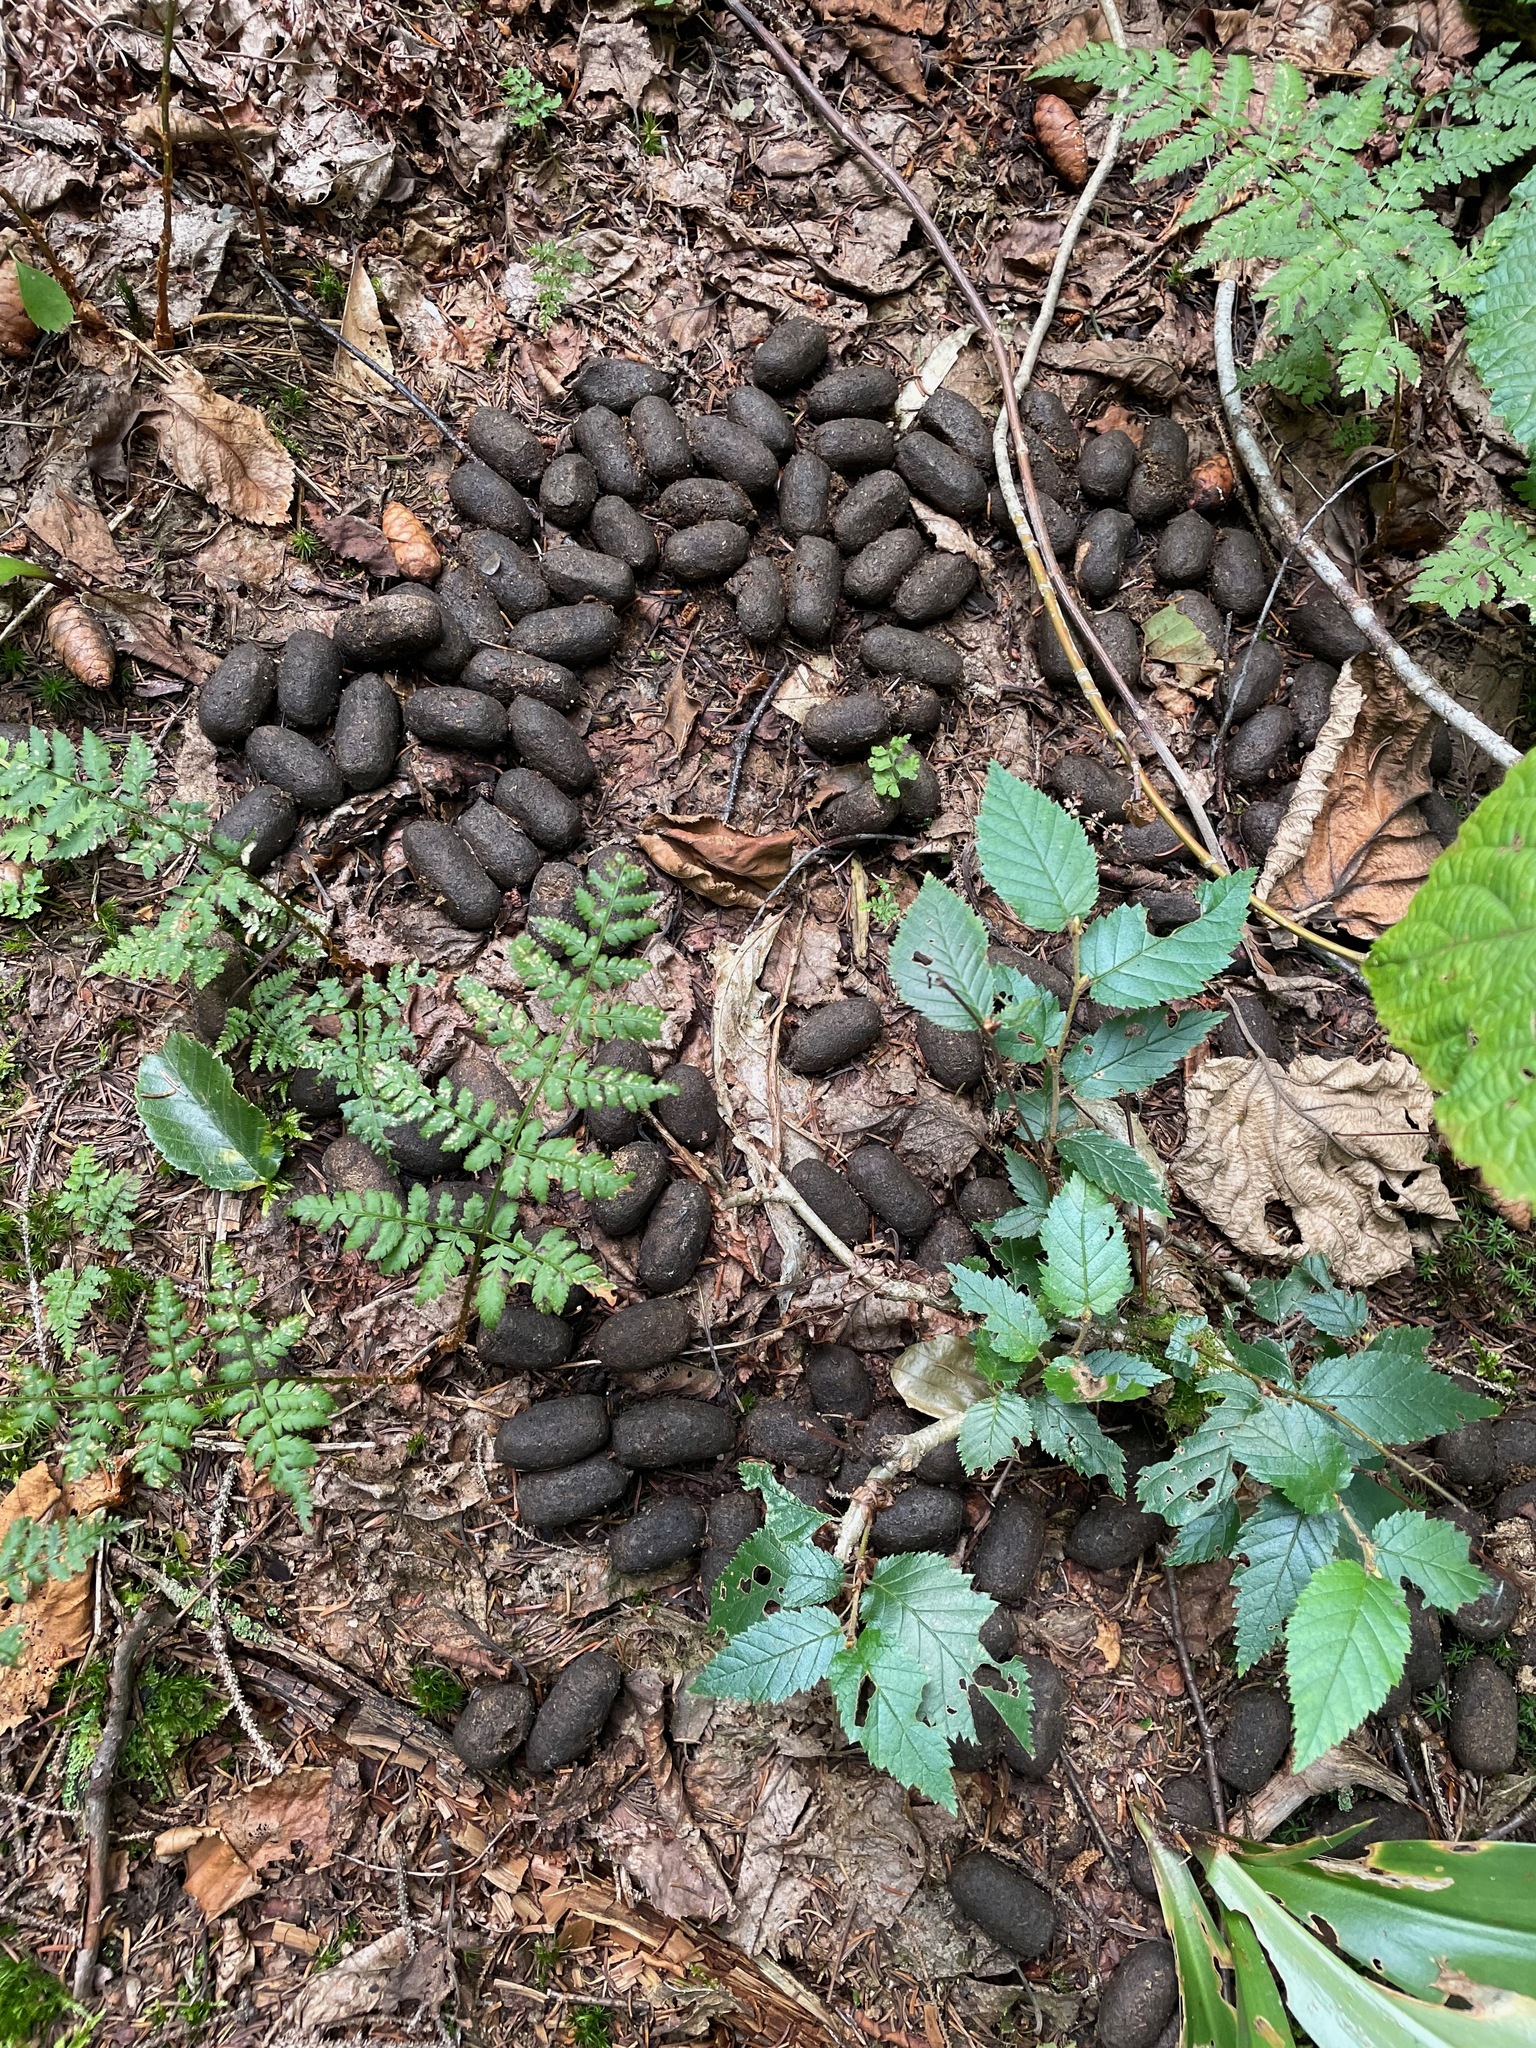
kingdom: Animalia
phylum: Chordata
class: Mammalia
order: Artiodactyla
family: Cervidae
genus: Alces
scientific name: Alces alces
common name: Moose
